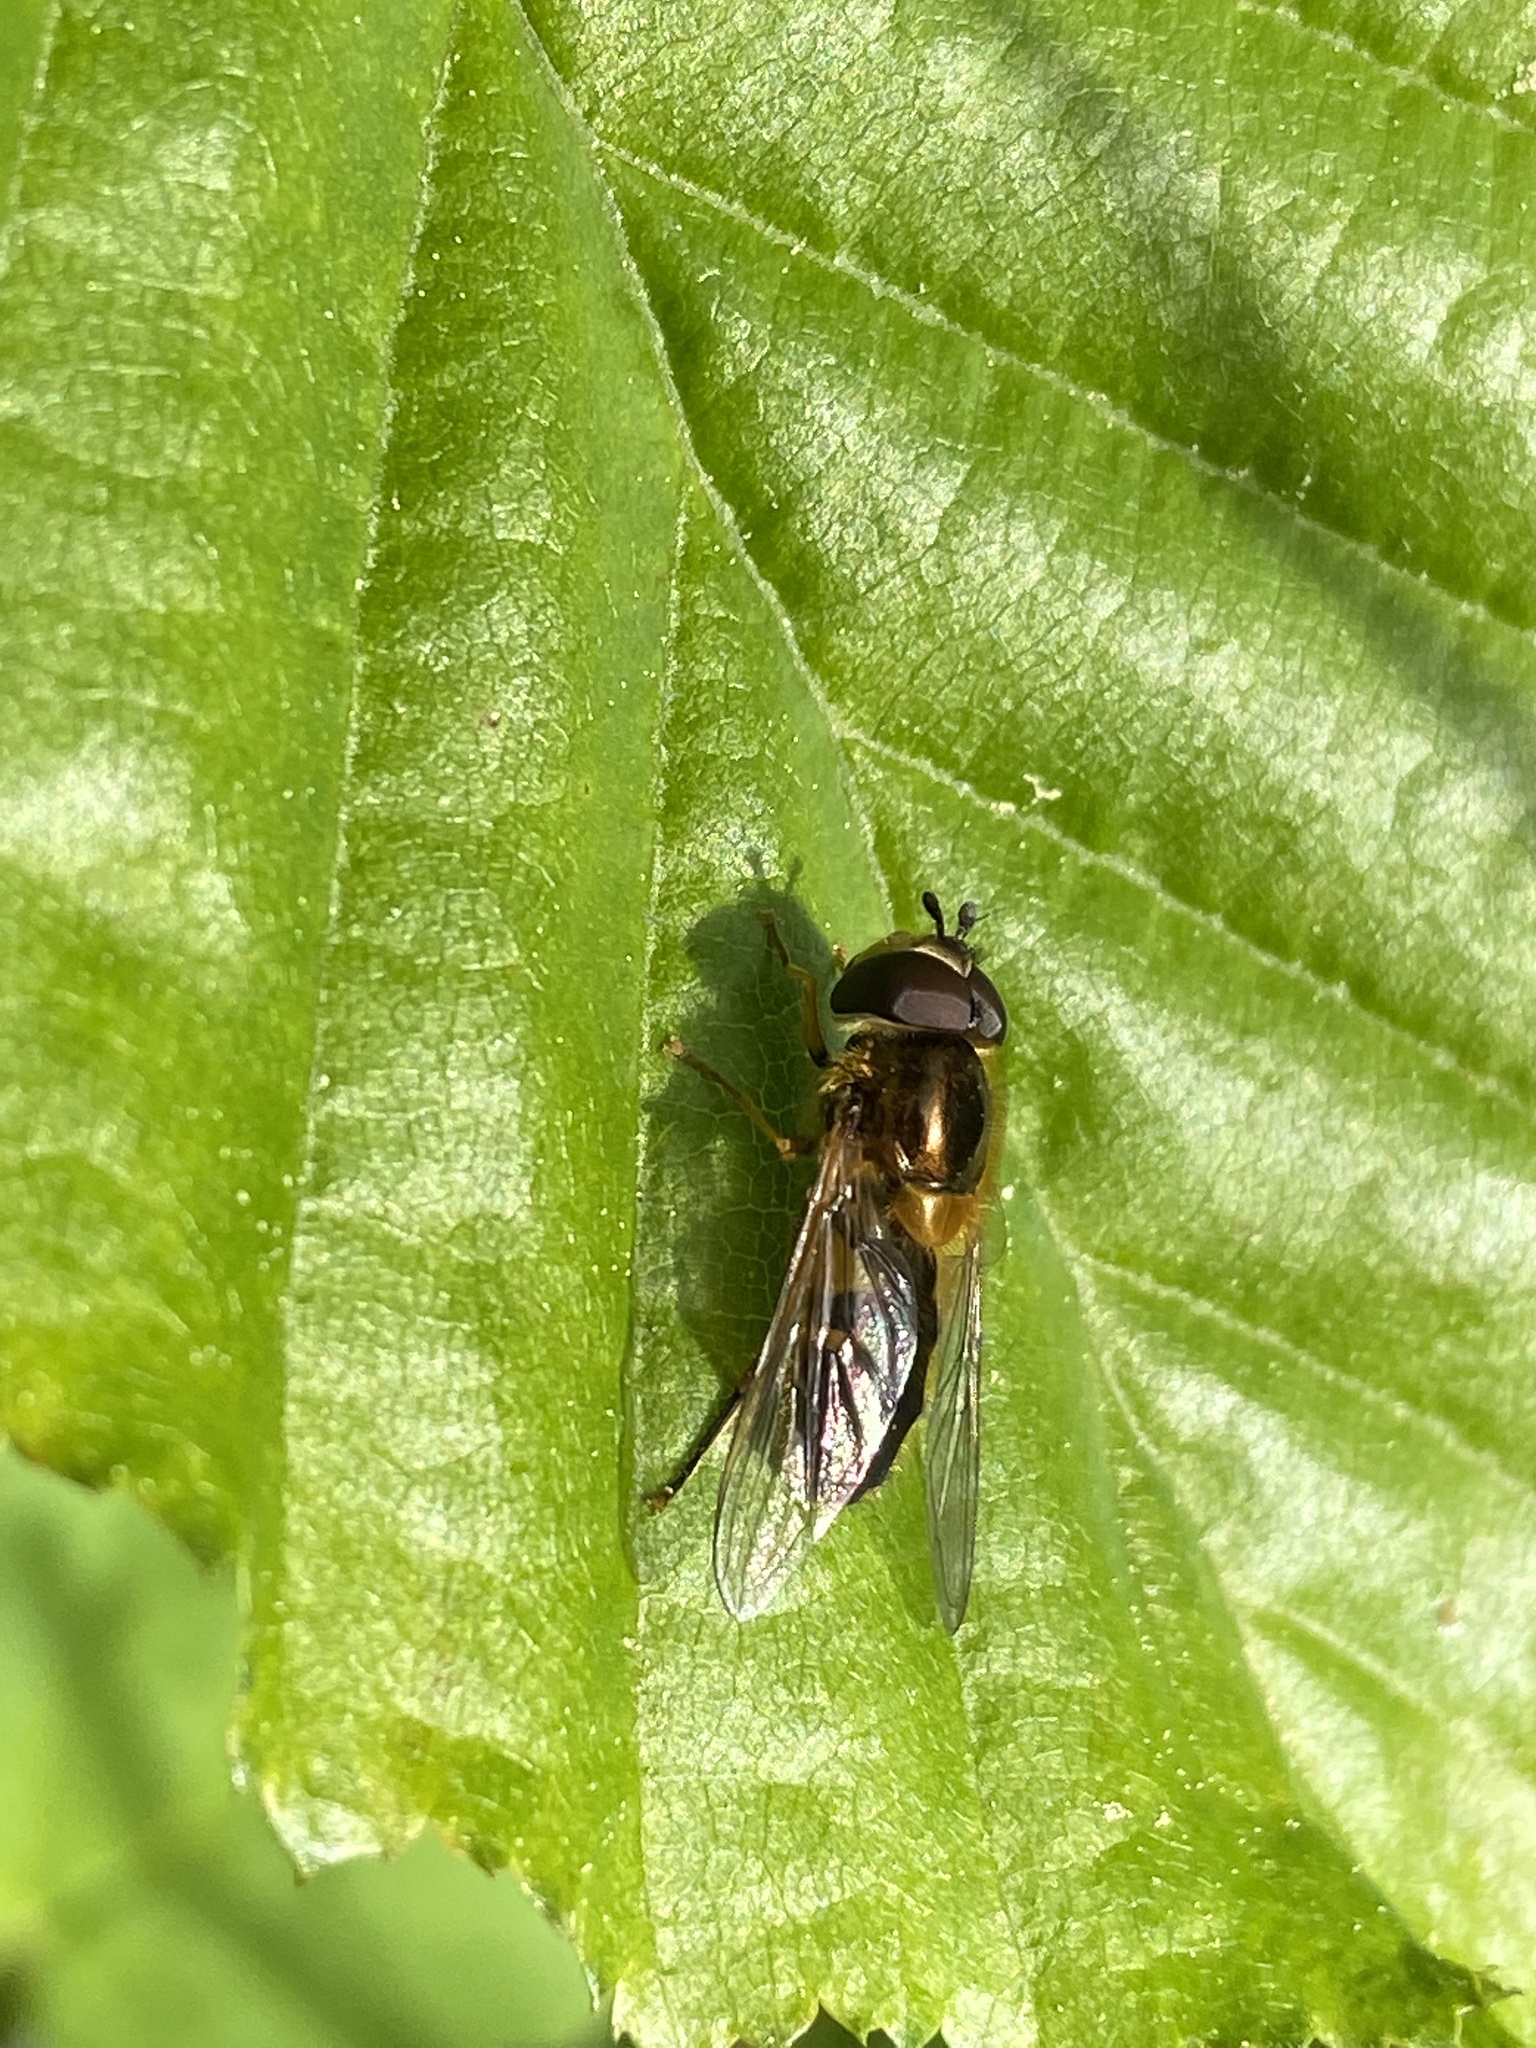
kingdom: Animalia
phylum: Arthropoda
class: Insecta
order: Diptera
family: Syrphidae
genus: Epistrophe
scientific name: Epistrophe eligans
